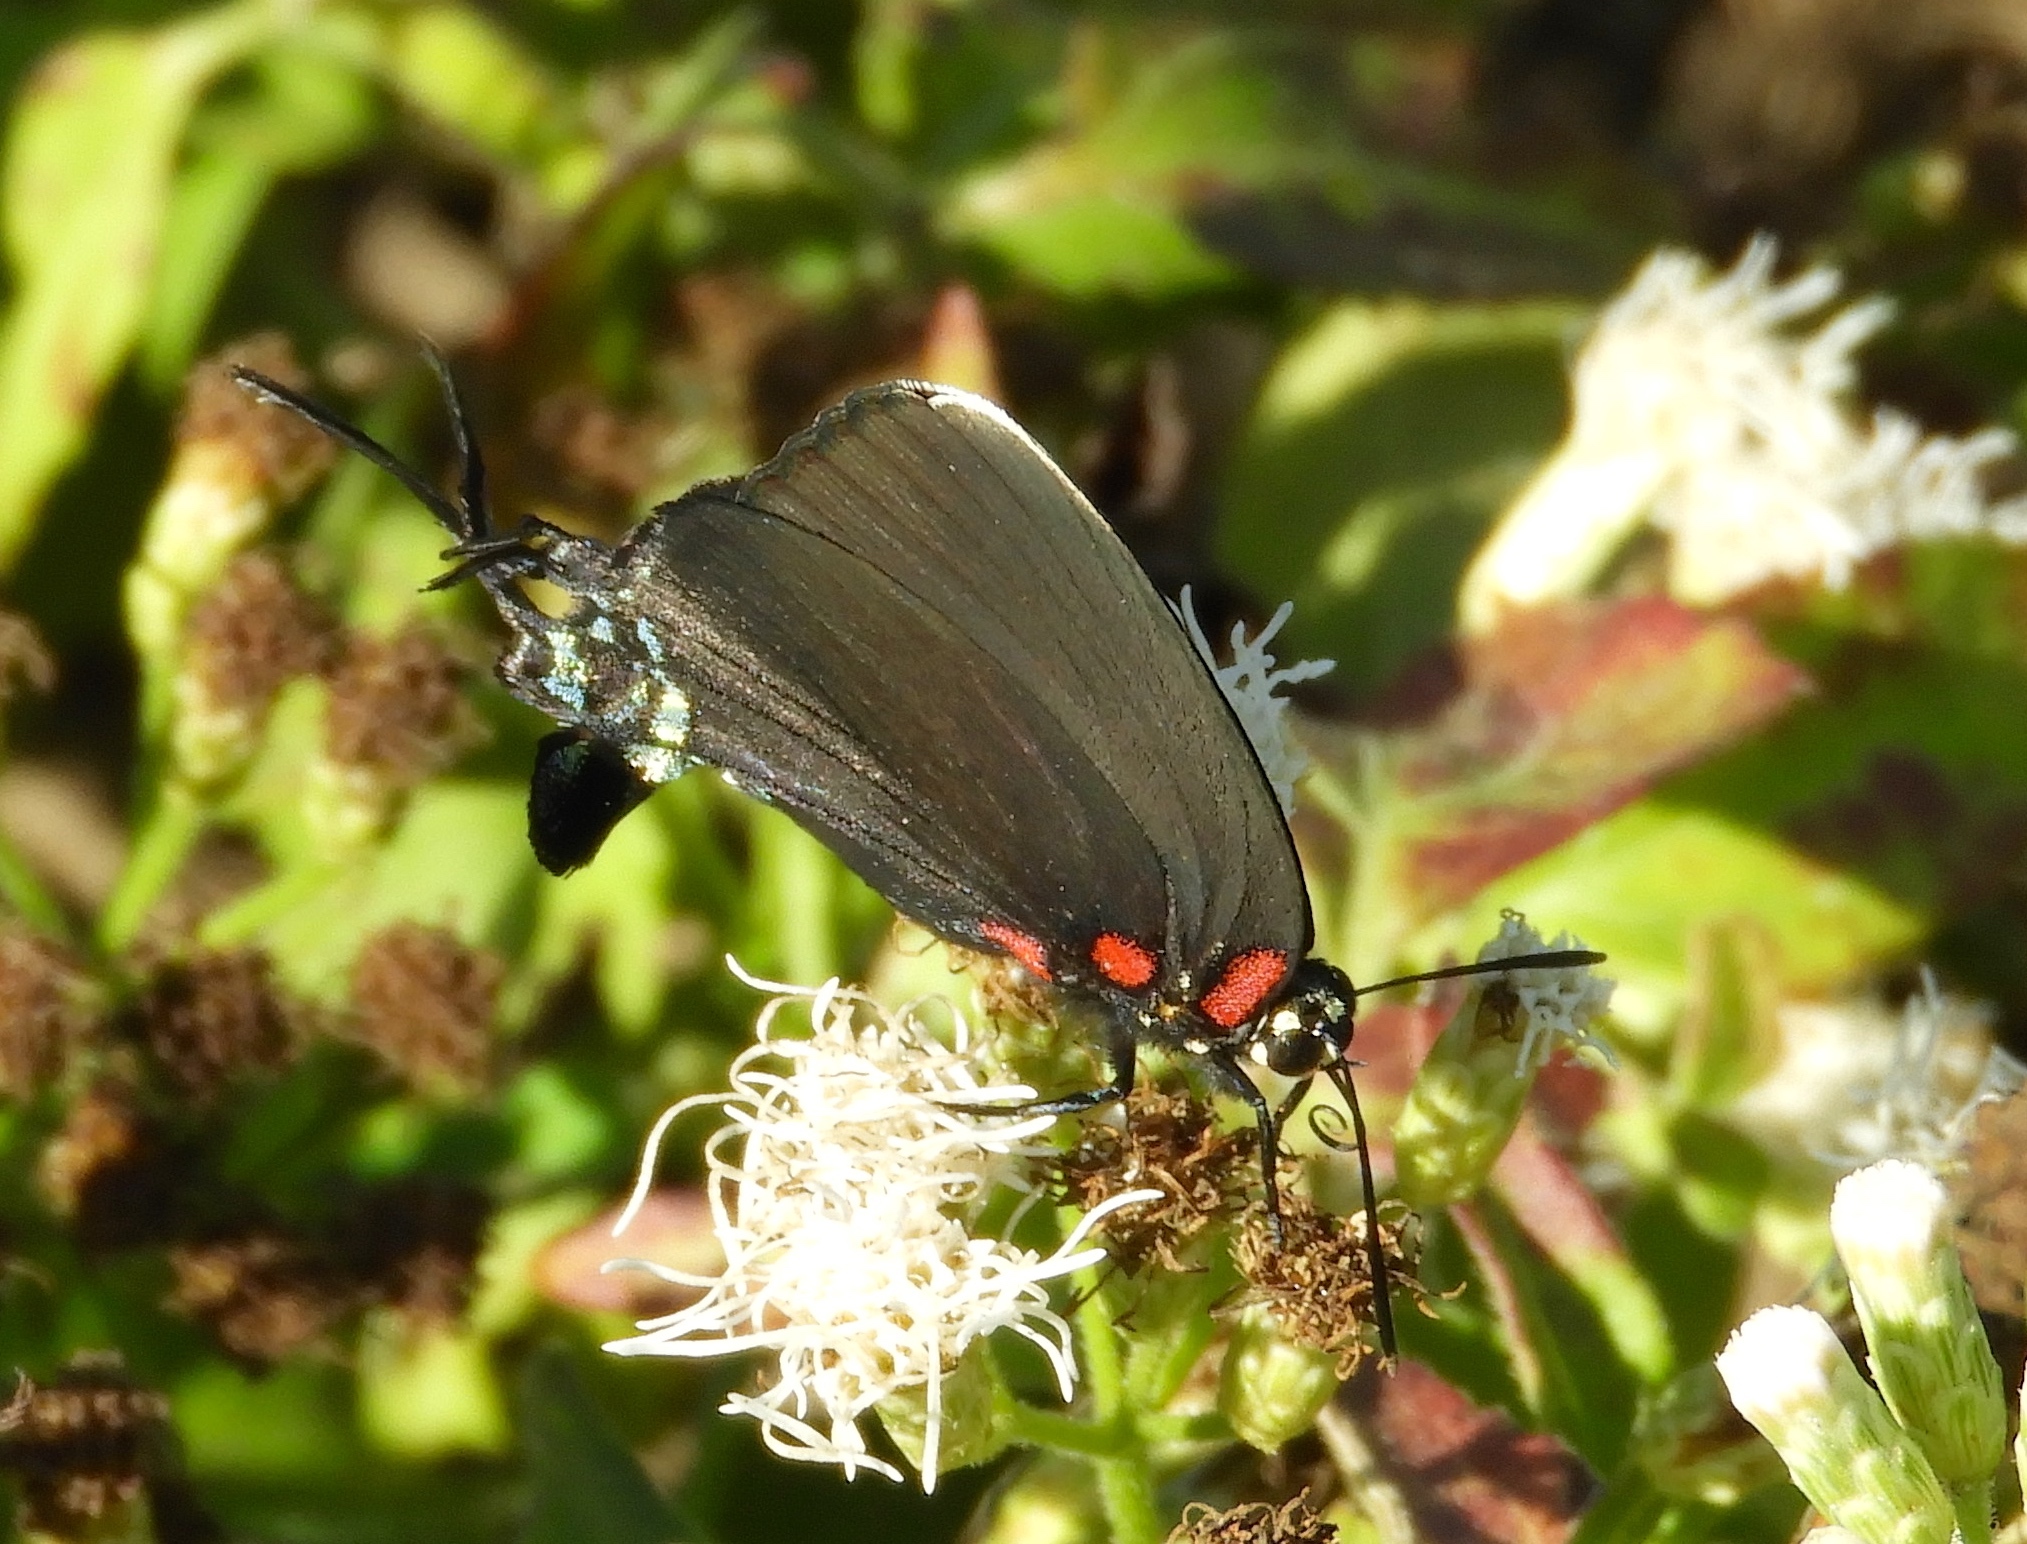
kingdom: Animalia
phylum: Arthropoda
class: Insecta
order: Lepidoptera
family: Lycaenidae
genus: Atlides
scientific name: Atlides
